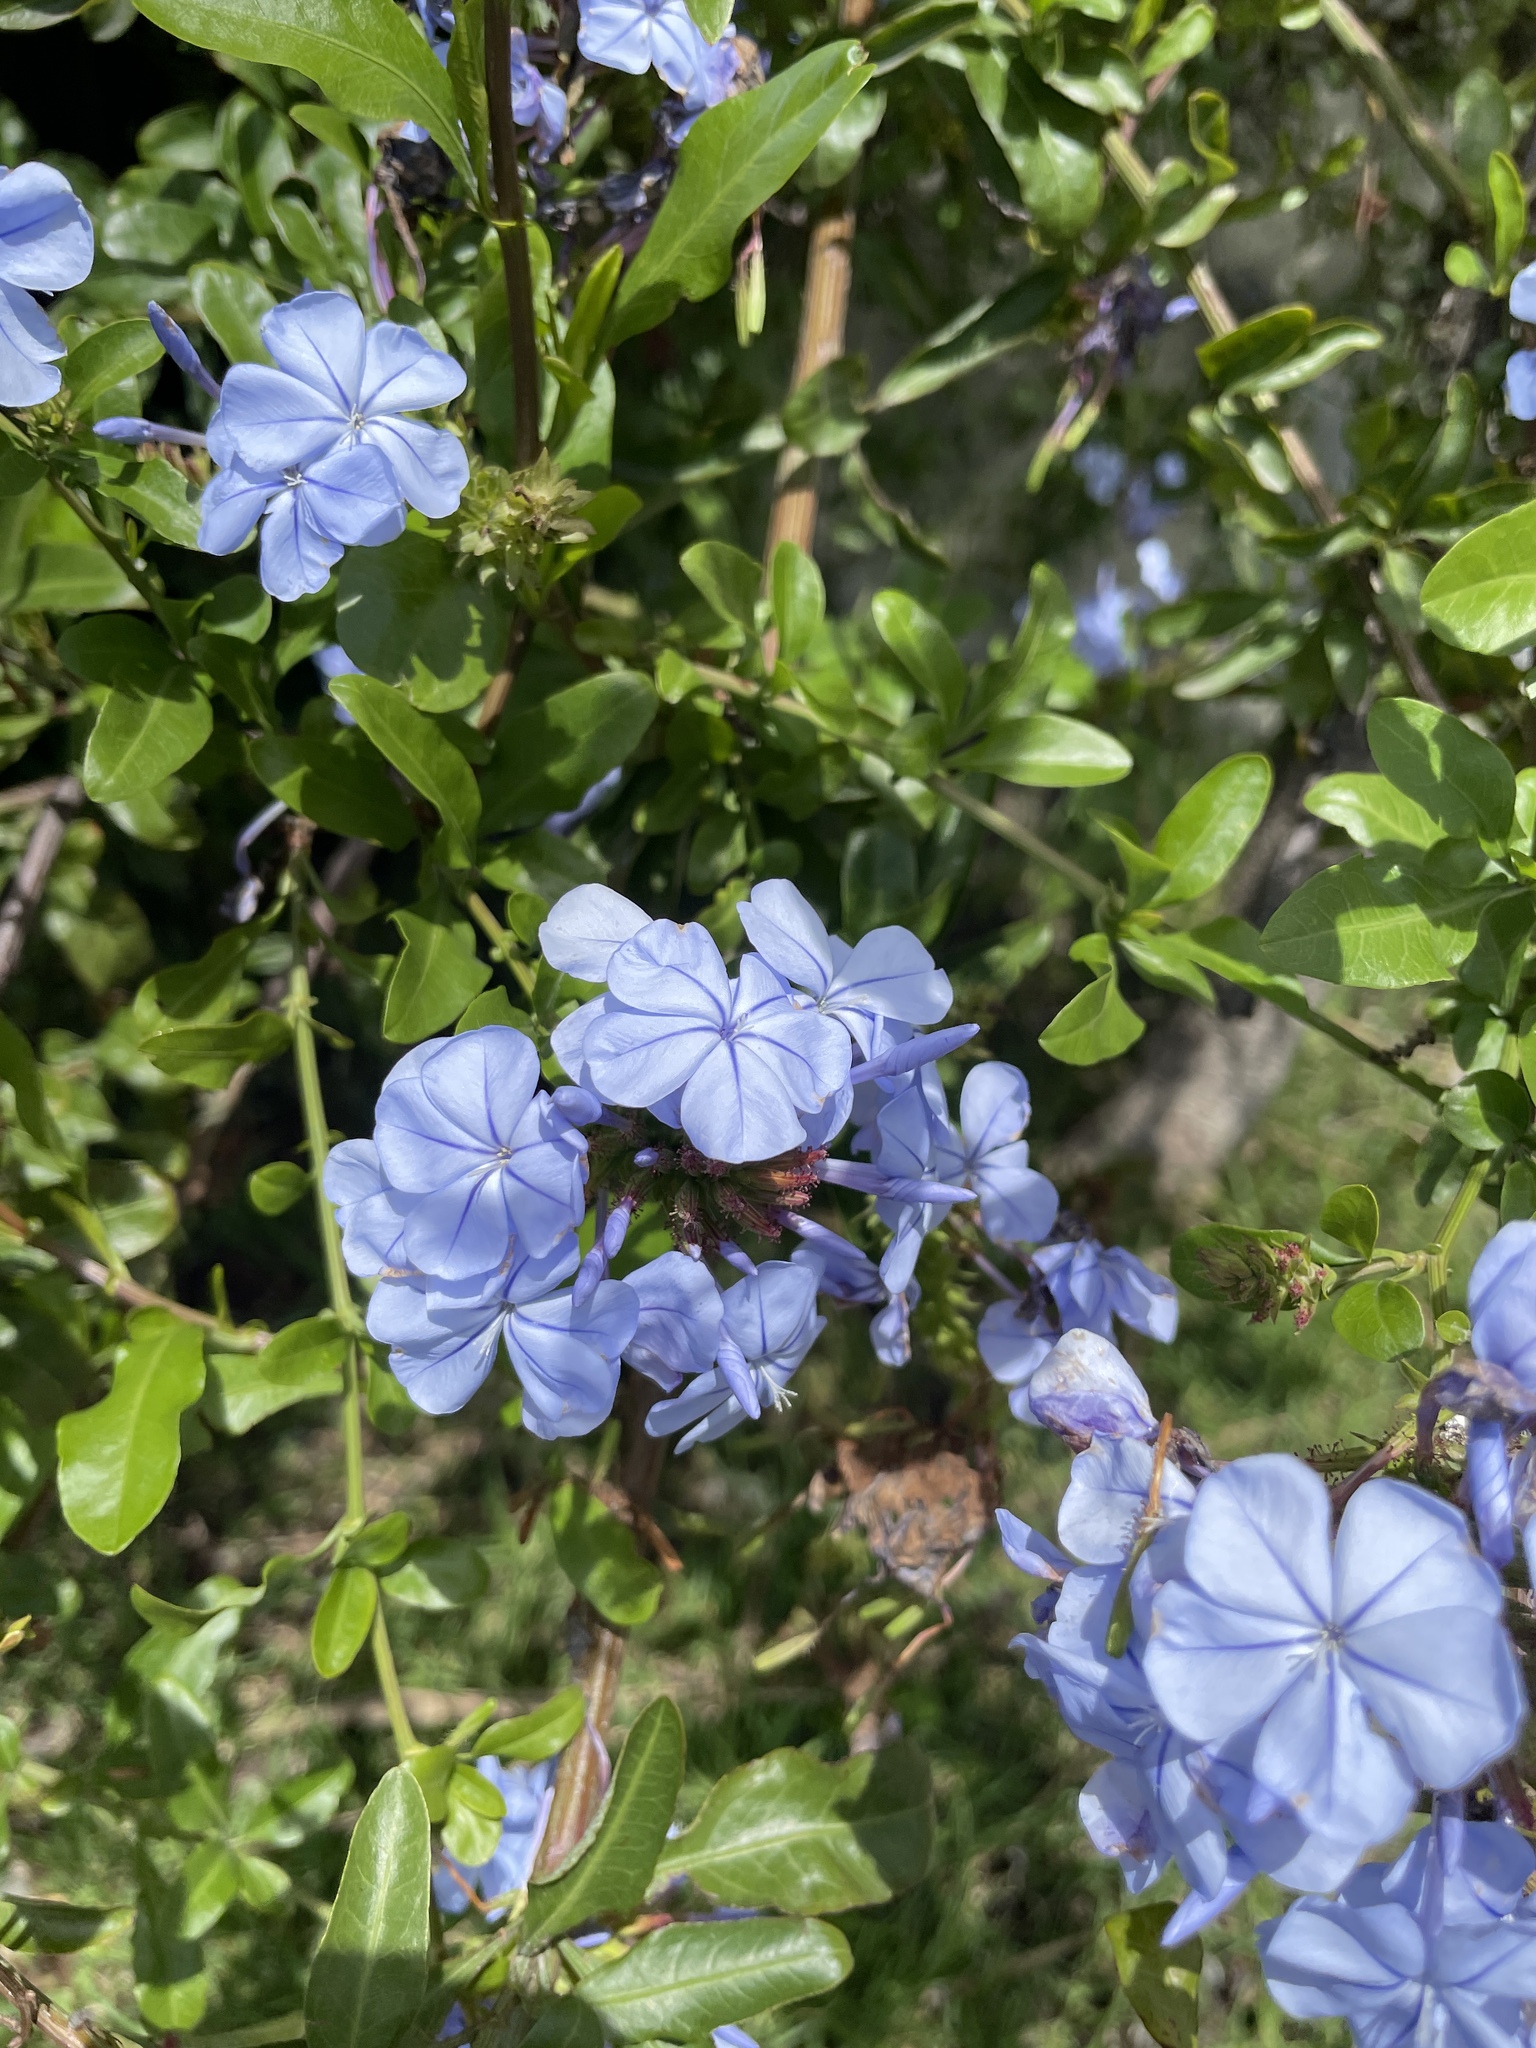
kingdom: Plantae
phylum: Tracheophyta
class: Magnoliopsida
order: Caryophyllales
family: Plumbaginaceae
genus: Plumbago
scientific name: Plumbago auriculata
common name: Cape leadwort
